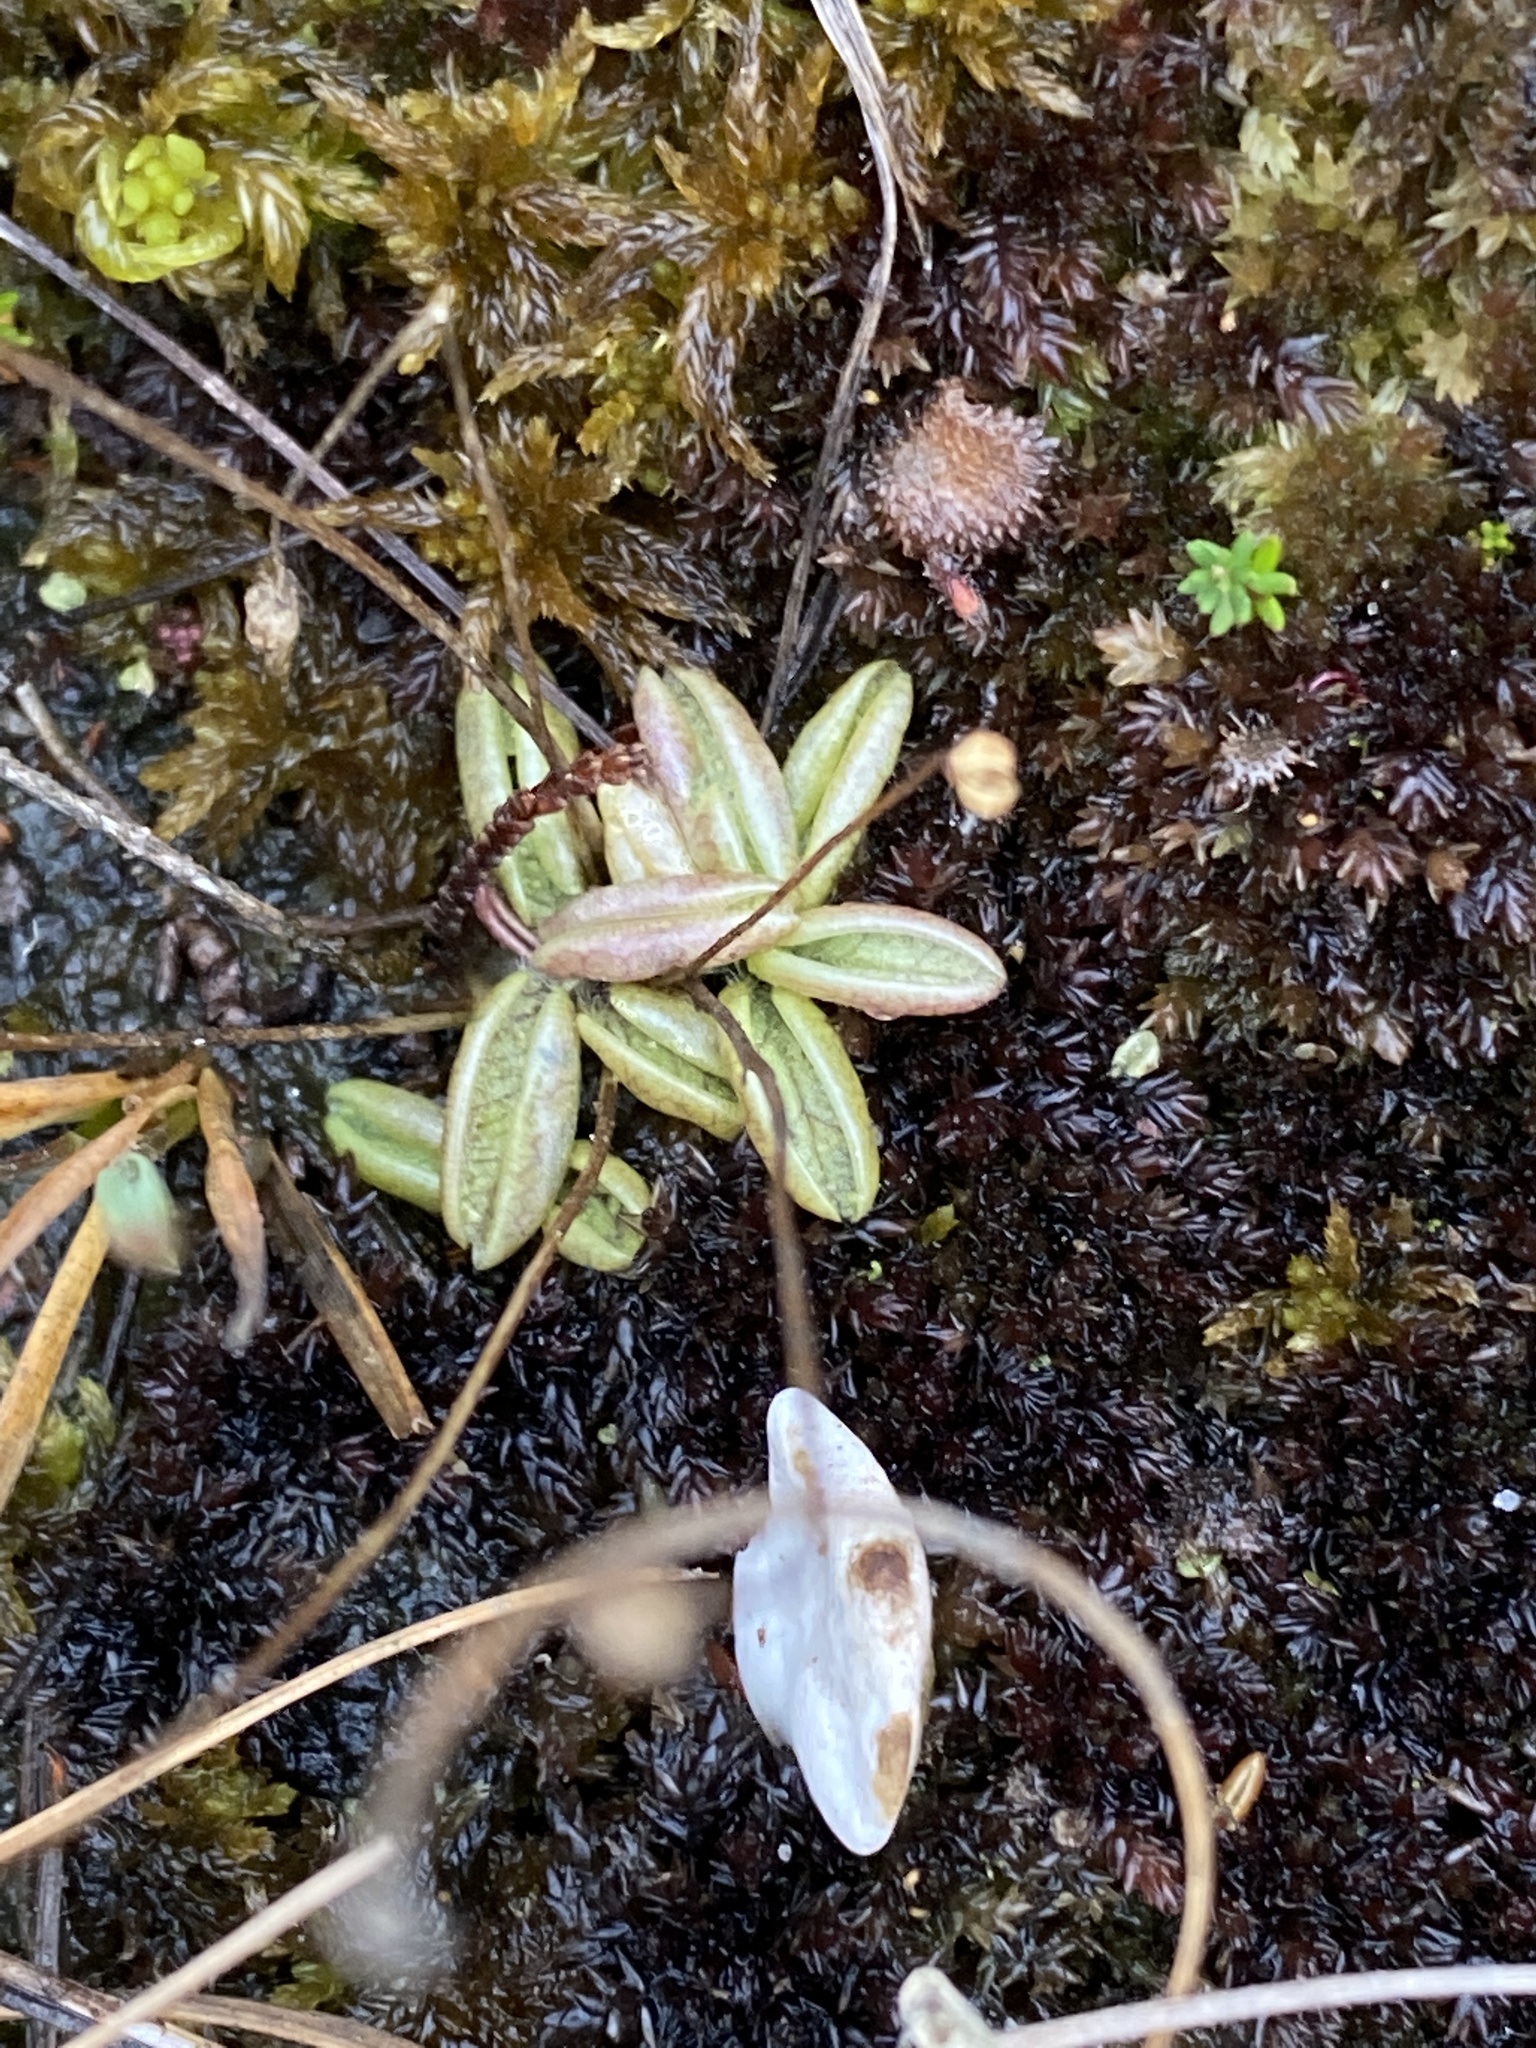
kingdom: Plantae
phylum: Tracheophyta
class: Magnoliopsida
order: Lamiales
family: Lentibulariaceae
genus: Pinguicula
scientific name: Pinguicula lusitanica
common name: Pale butterwort
